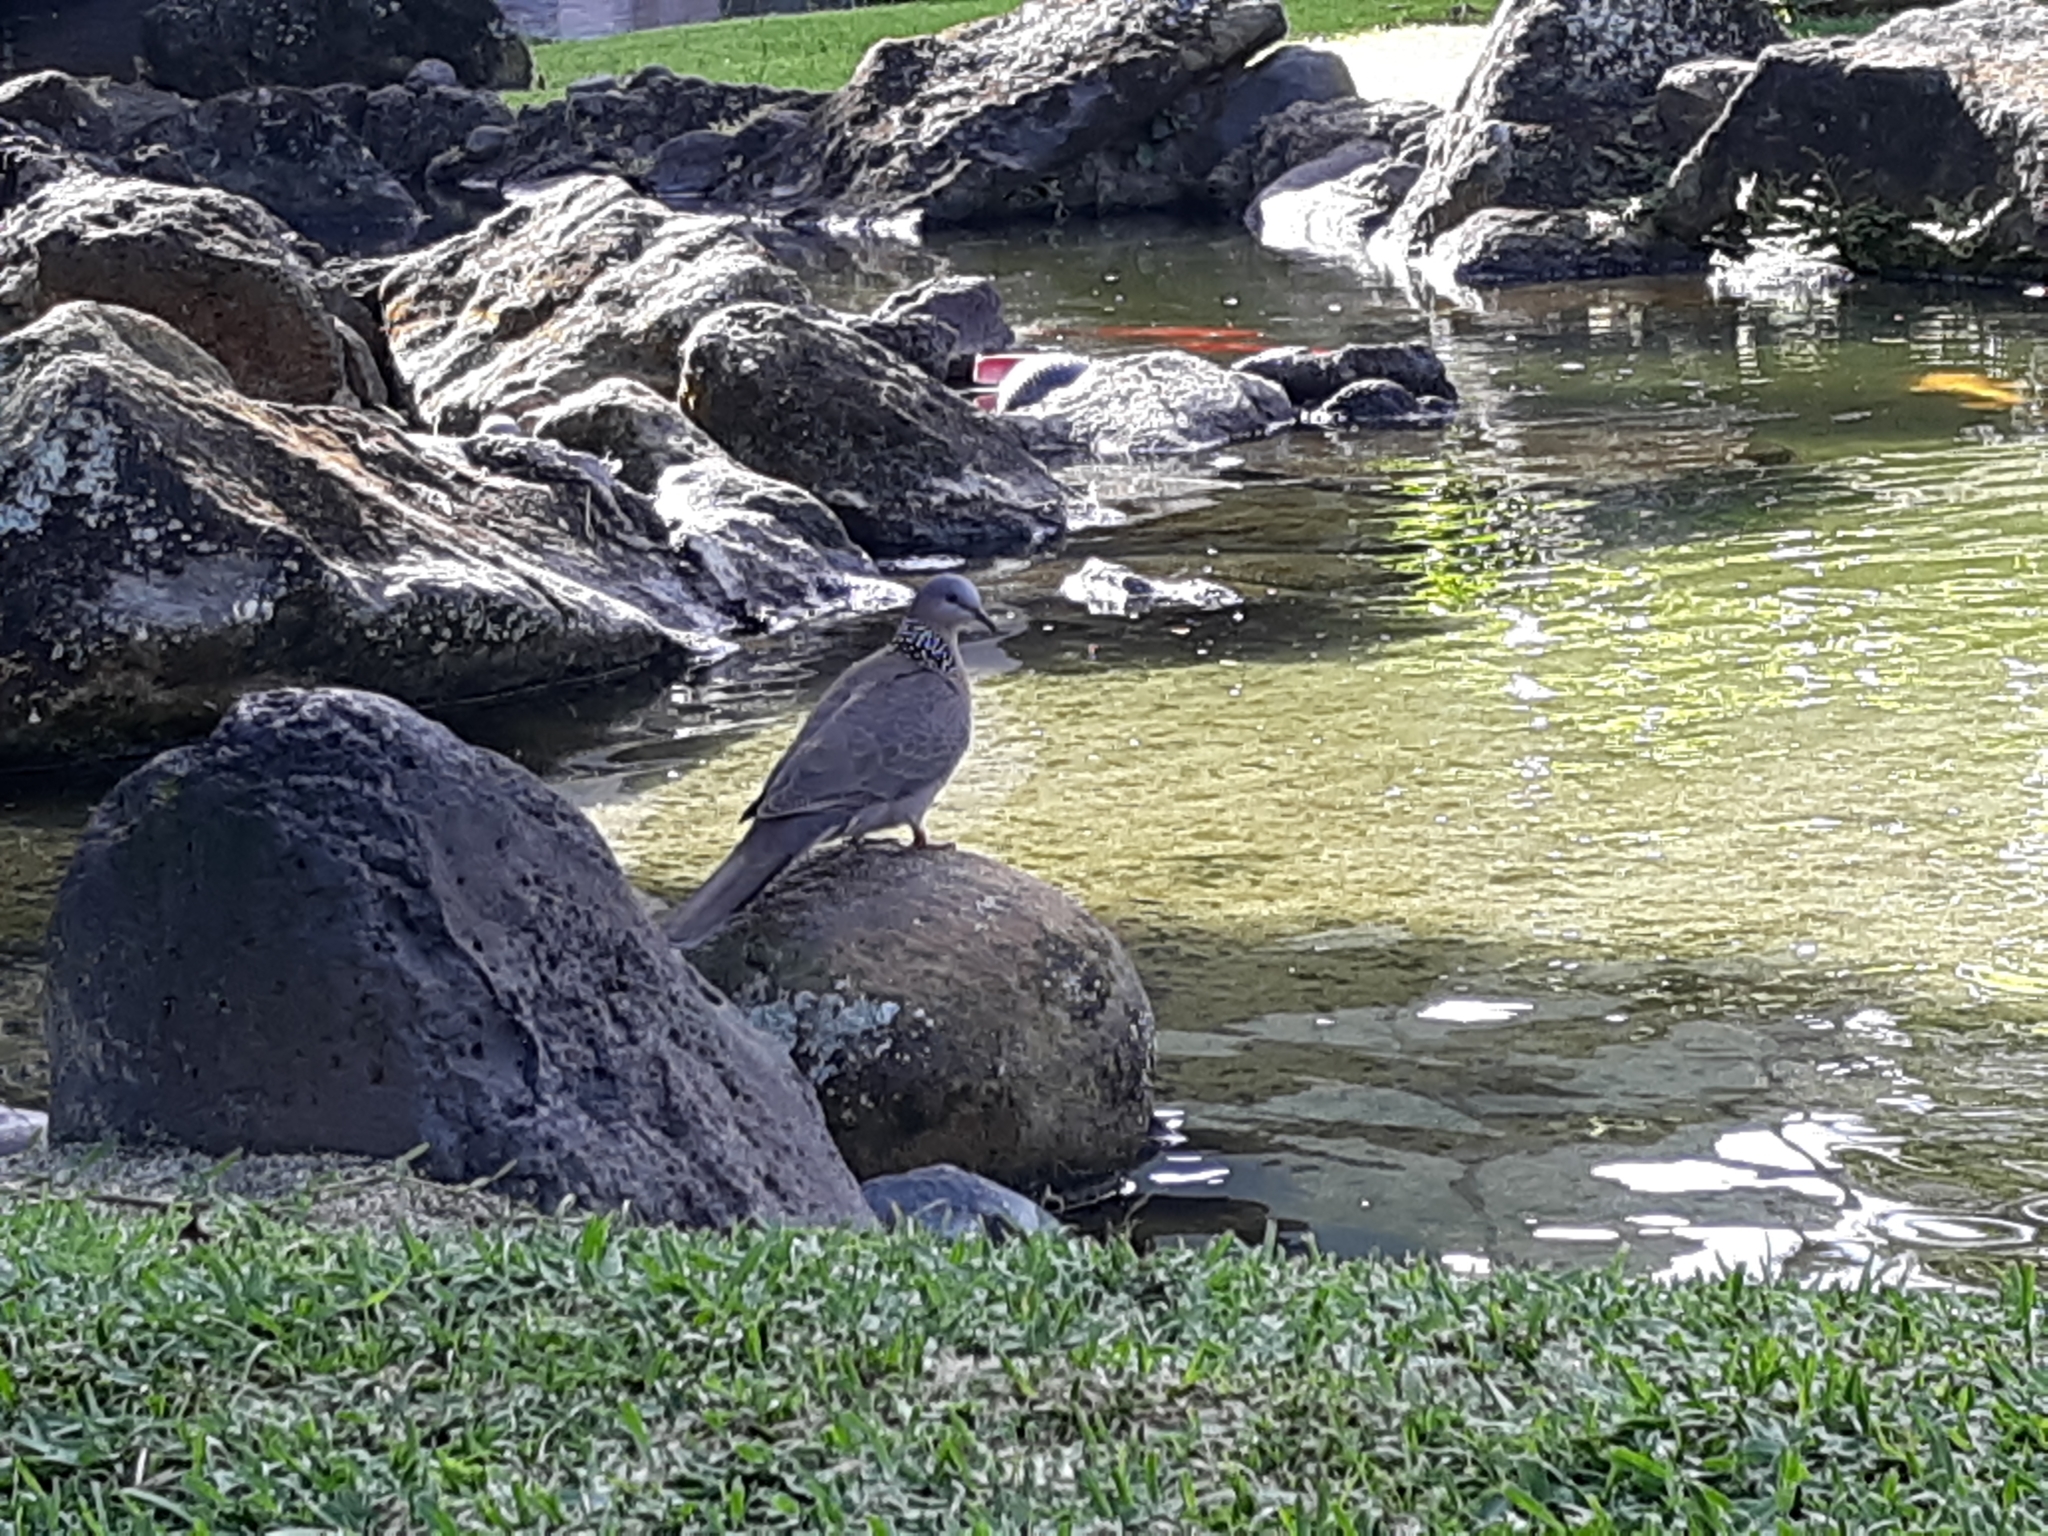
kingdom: Animalia
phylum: Chordata
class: Aves
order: Columbiformes
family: Columbidae
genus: Spilopelia
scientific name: Spilopelia chinensis
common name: Spotted dove
